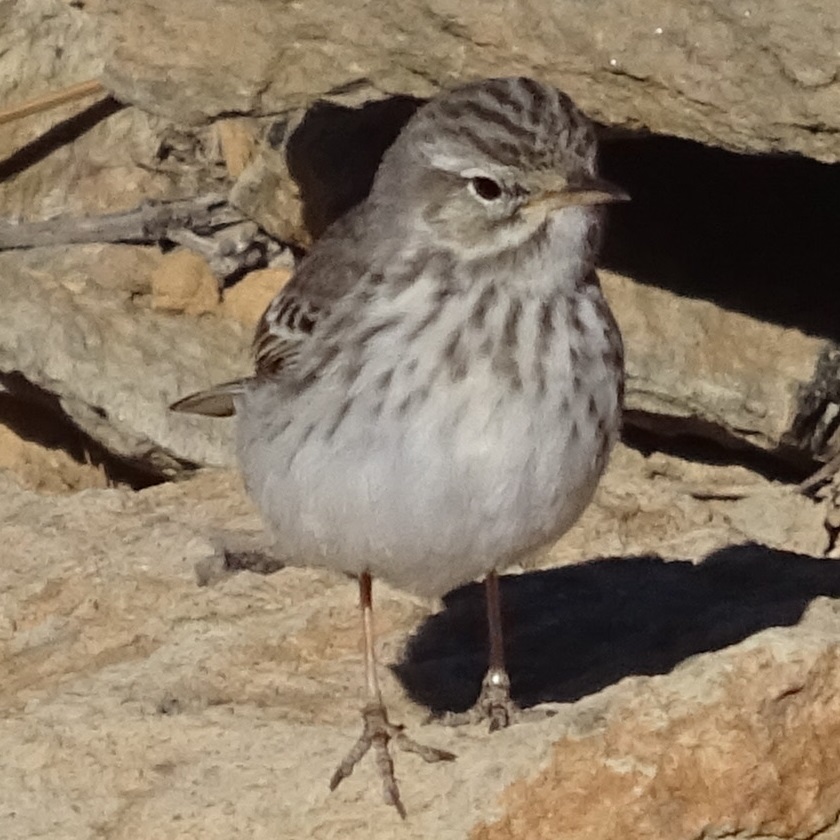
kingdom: Animalia
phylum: Chordata
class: Aves
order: Passeriformes
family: Motacillidae
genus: Anthus
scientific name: Anthus berthelotii
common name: Berthelot's pipit
